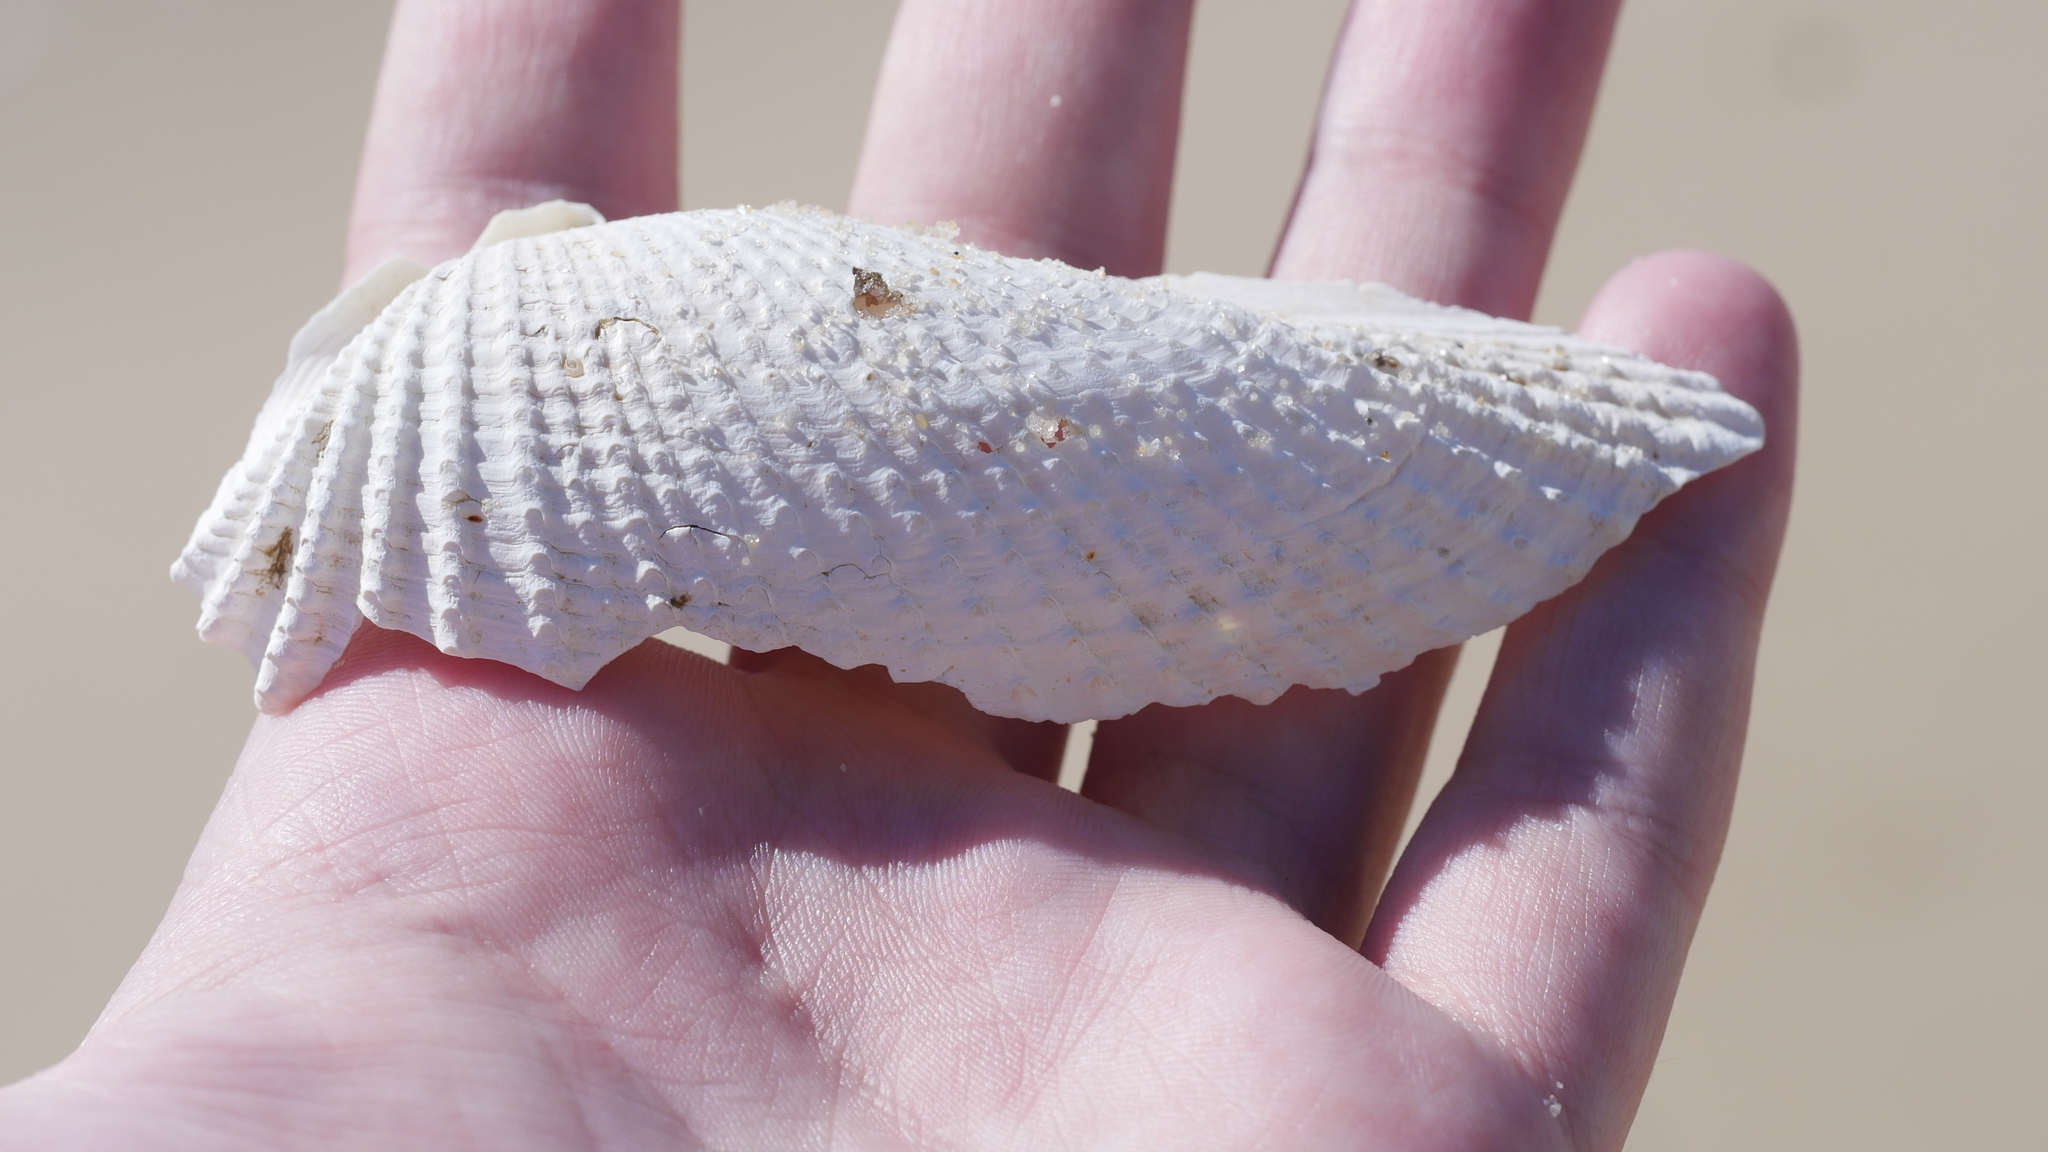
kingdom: Animalia
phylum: Mollusca
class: Bivalvia
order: Myida
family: Pholadidae
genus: Cyrtopleura
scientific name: Cyrtopleura costata
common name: Angel wing
